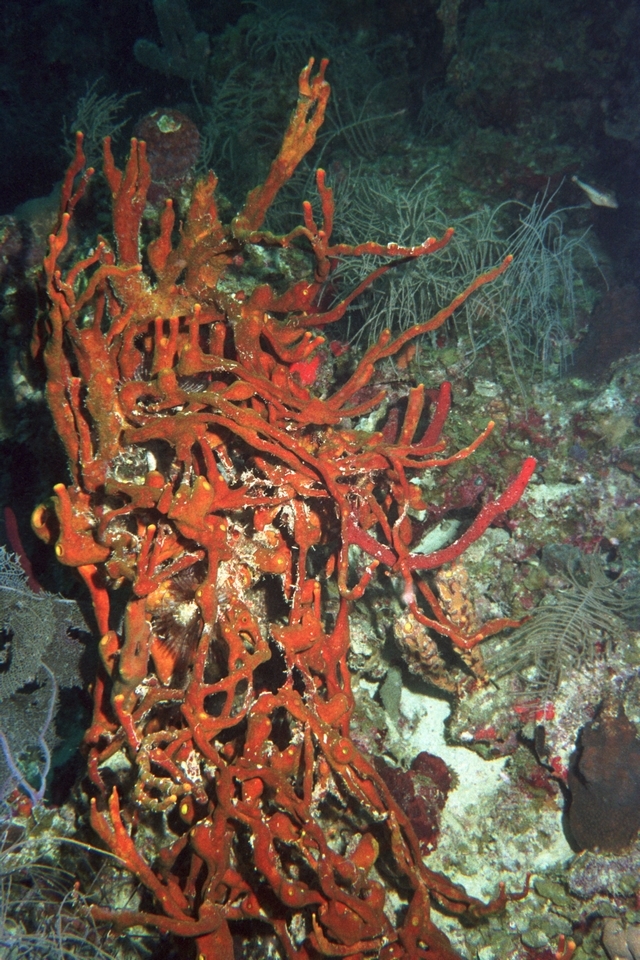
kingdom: Animalia
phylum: Porifera
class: Demospongiae
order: Verongiida
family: Aplysinidae
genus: Aplysina
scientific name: Aplysina fulva
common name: Scattered pore rope sponge
